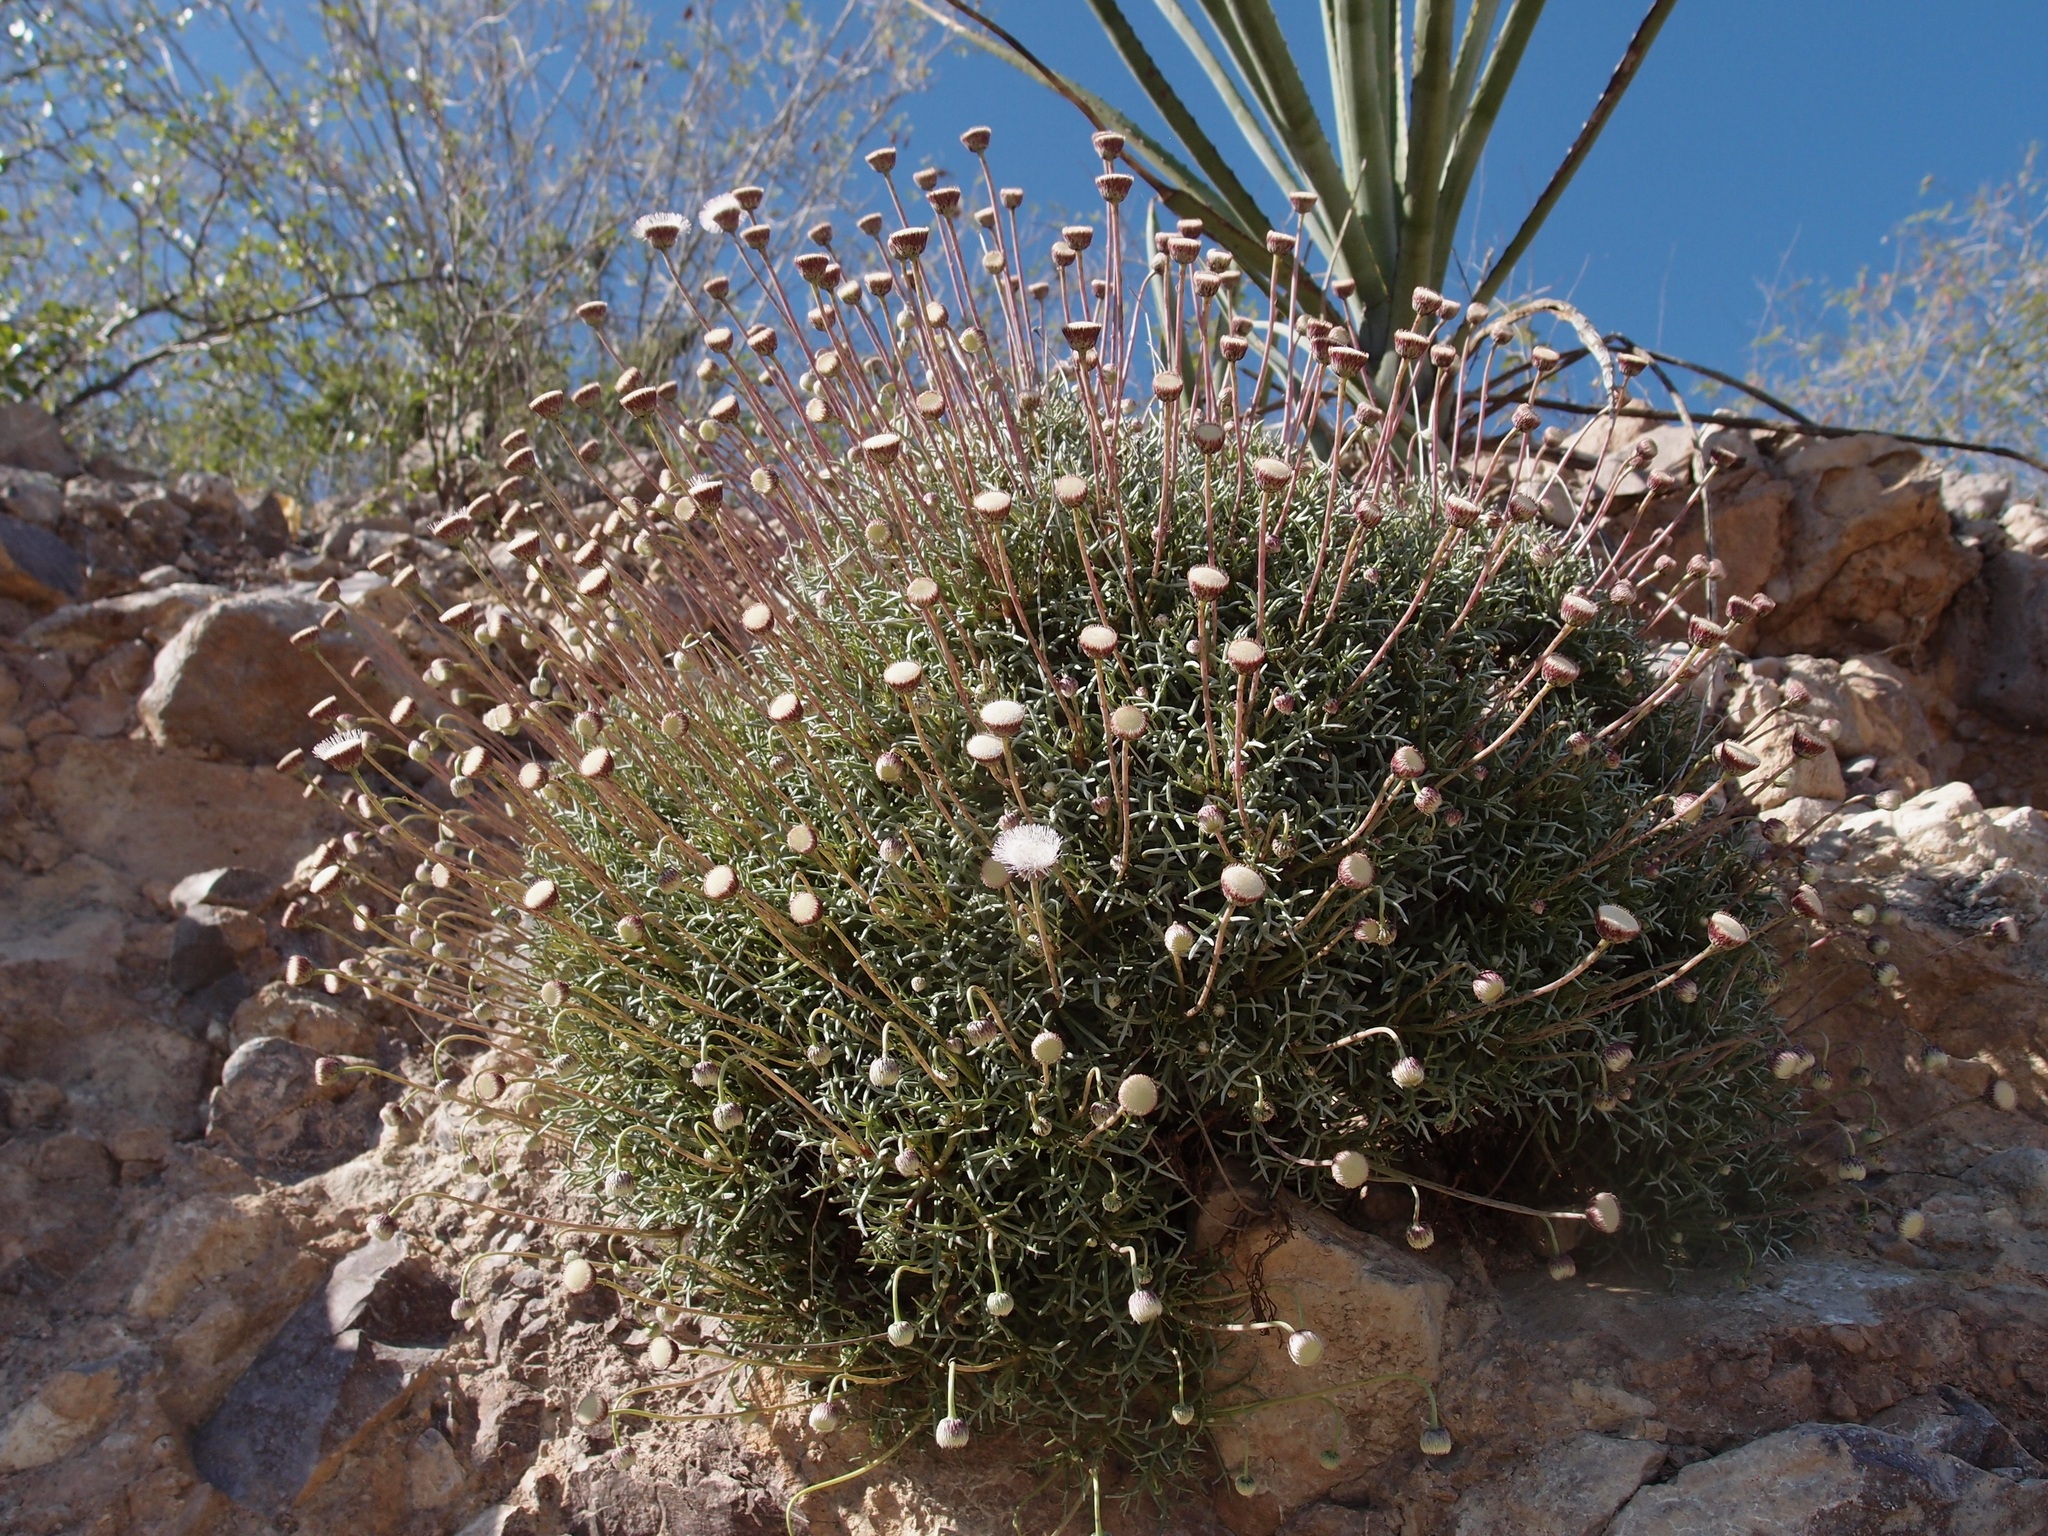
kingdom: Plantae
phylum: Tracheophyta
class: Magnoliopsida
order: Asterales
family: Asteraceae
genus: Hofmeisteria
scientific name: Hofmeisteria crassifolia
